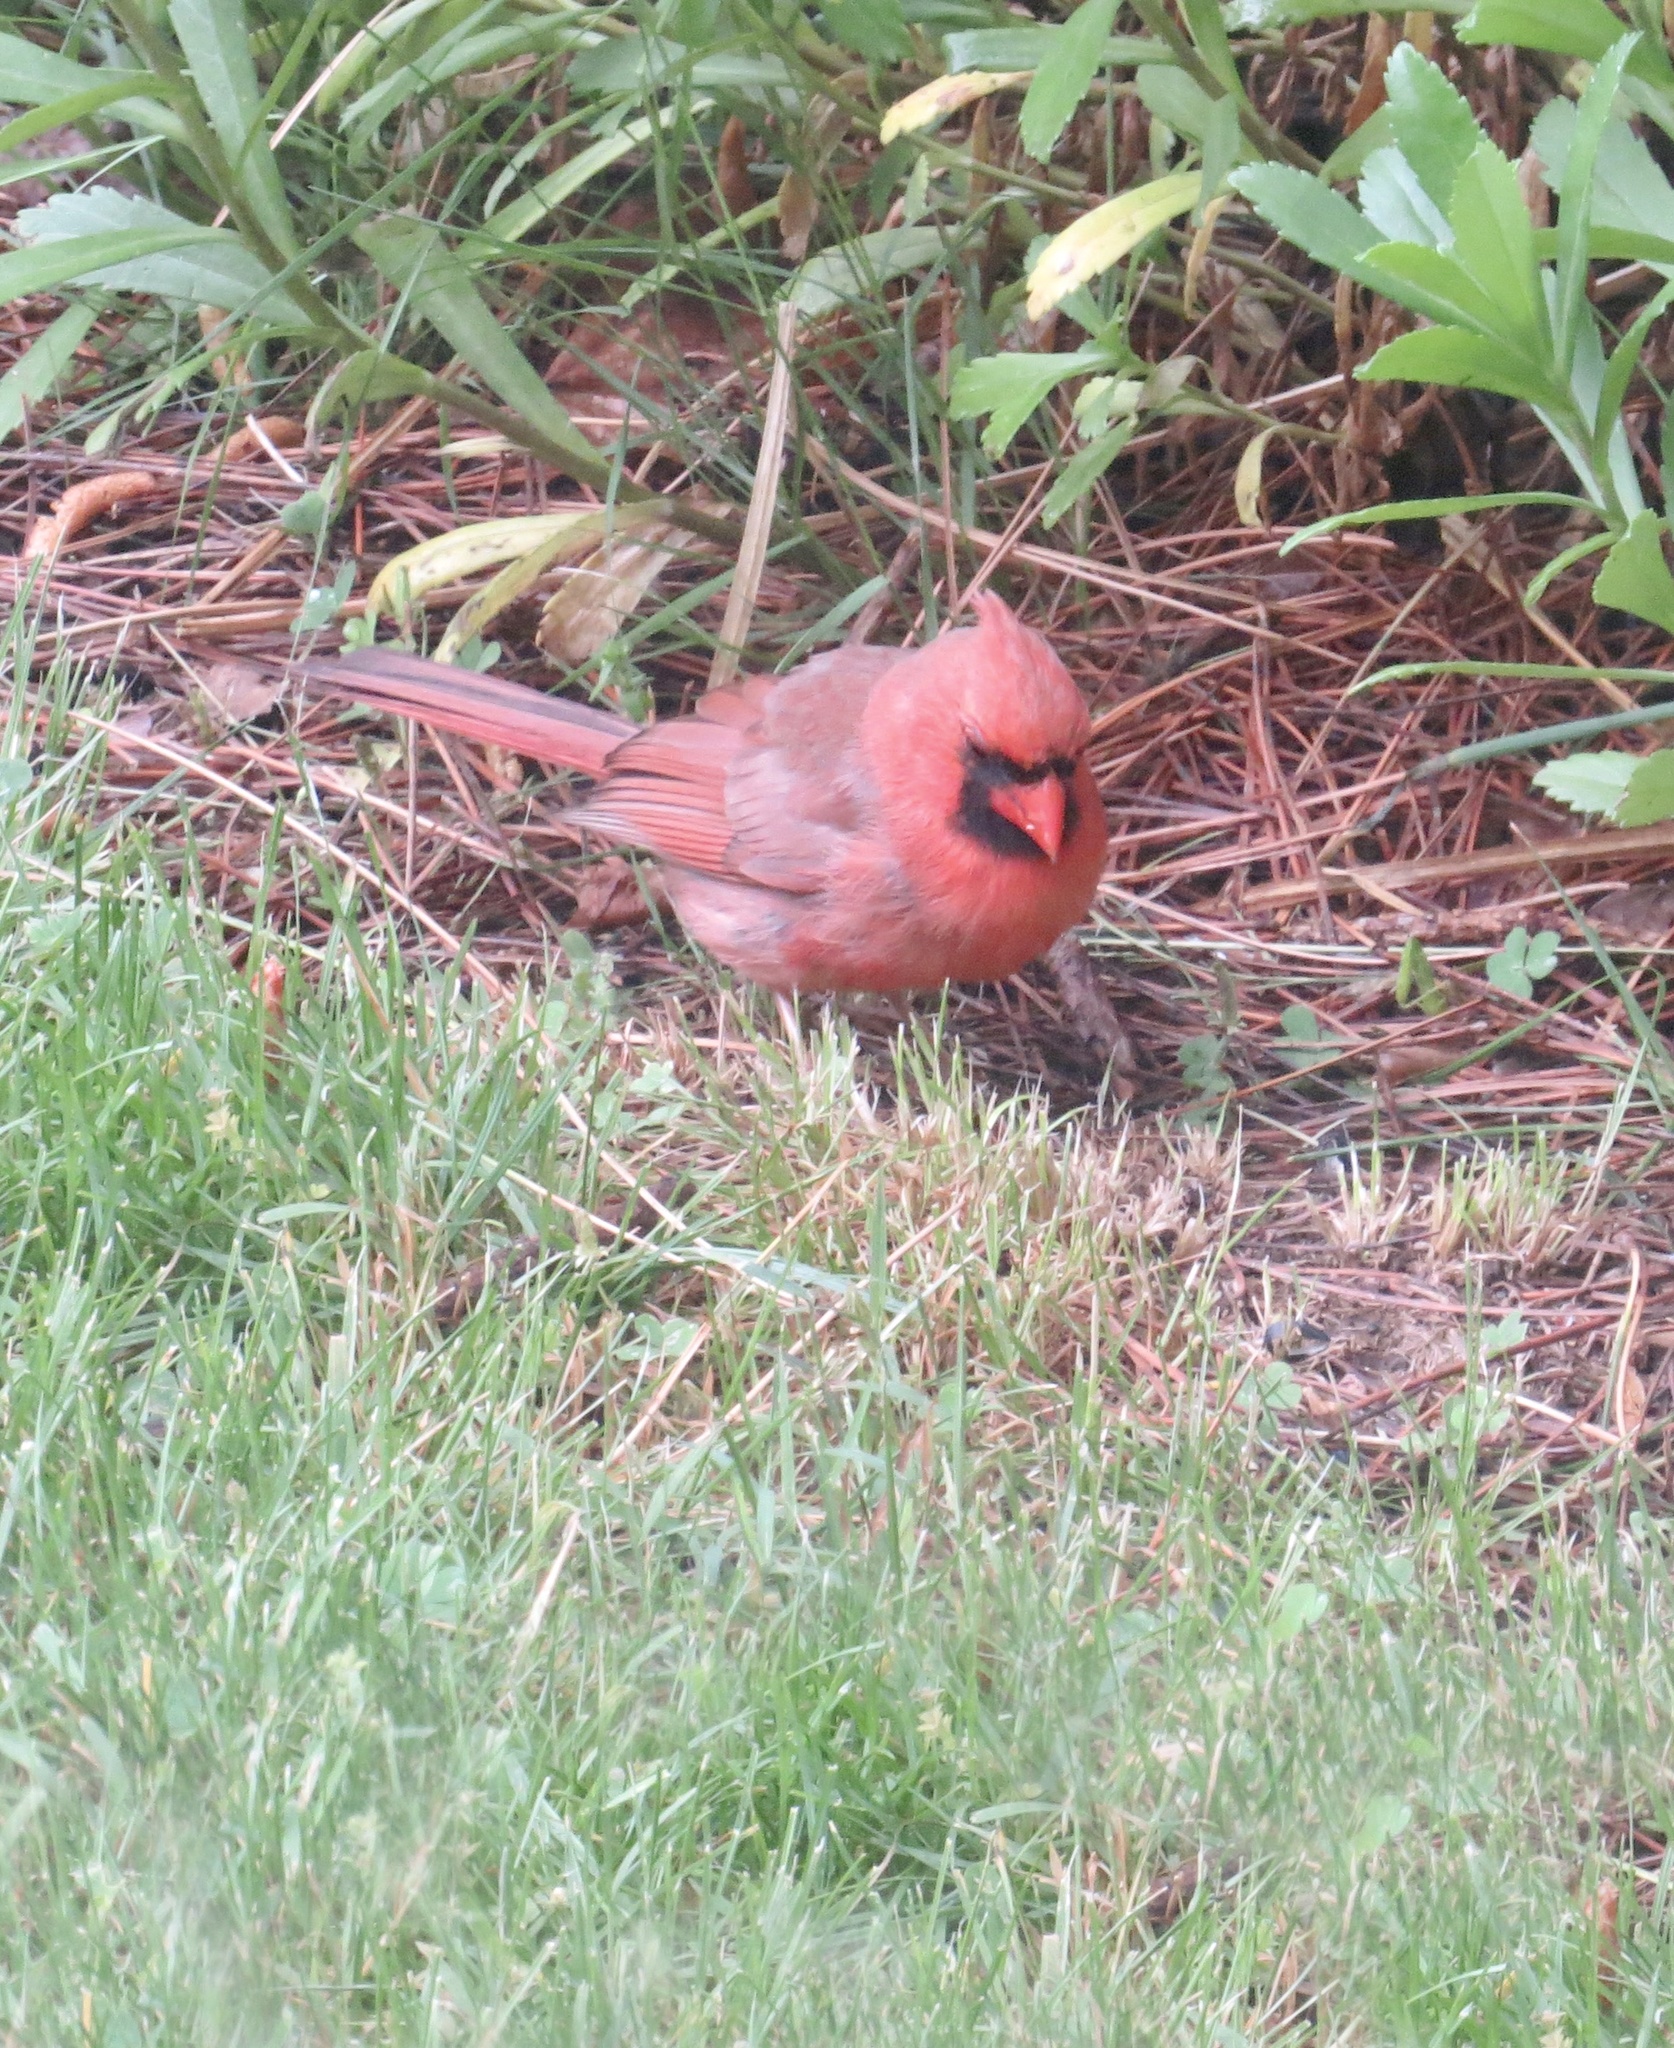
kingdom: Animalia
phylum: Chordata
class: Aves
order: Passeriformes
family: Cardinalidae
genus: Cardinalis
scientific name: Cardinalis cardinalis
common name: Northern cardinal
